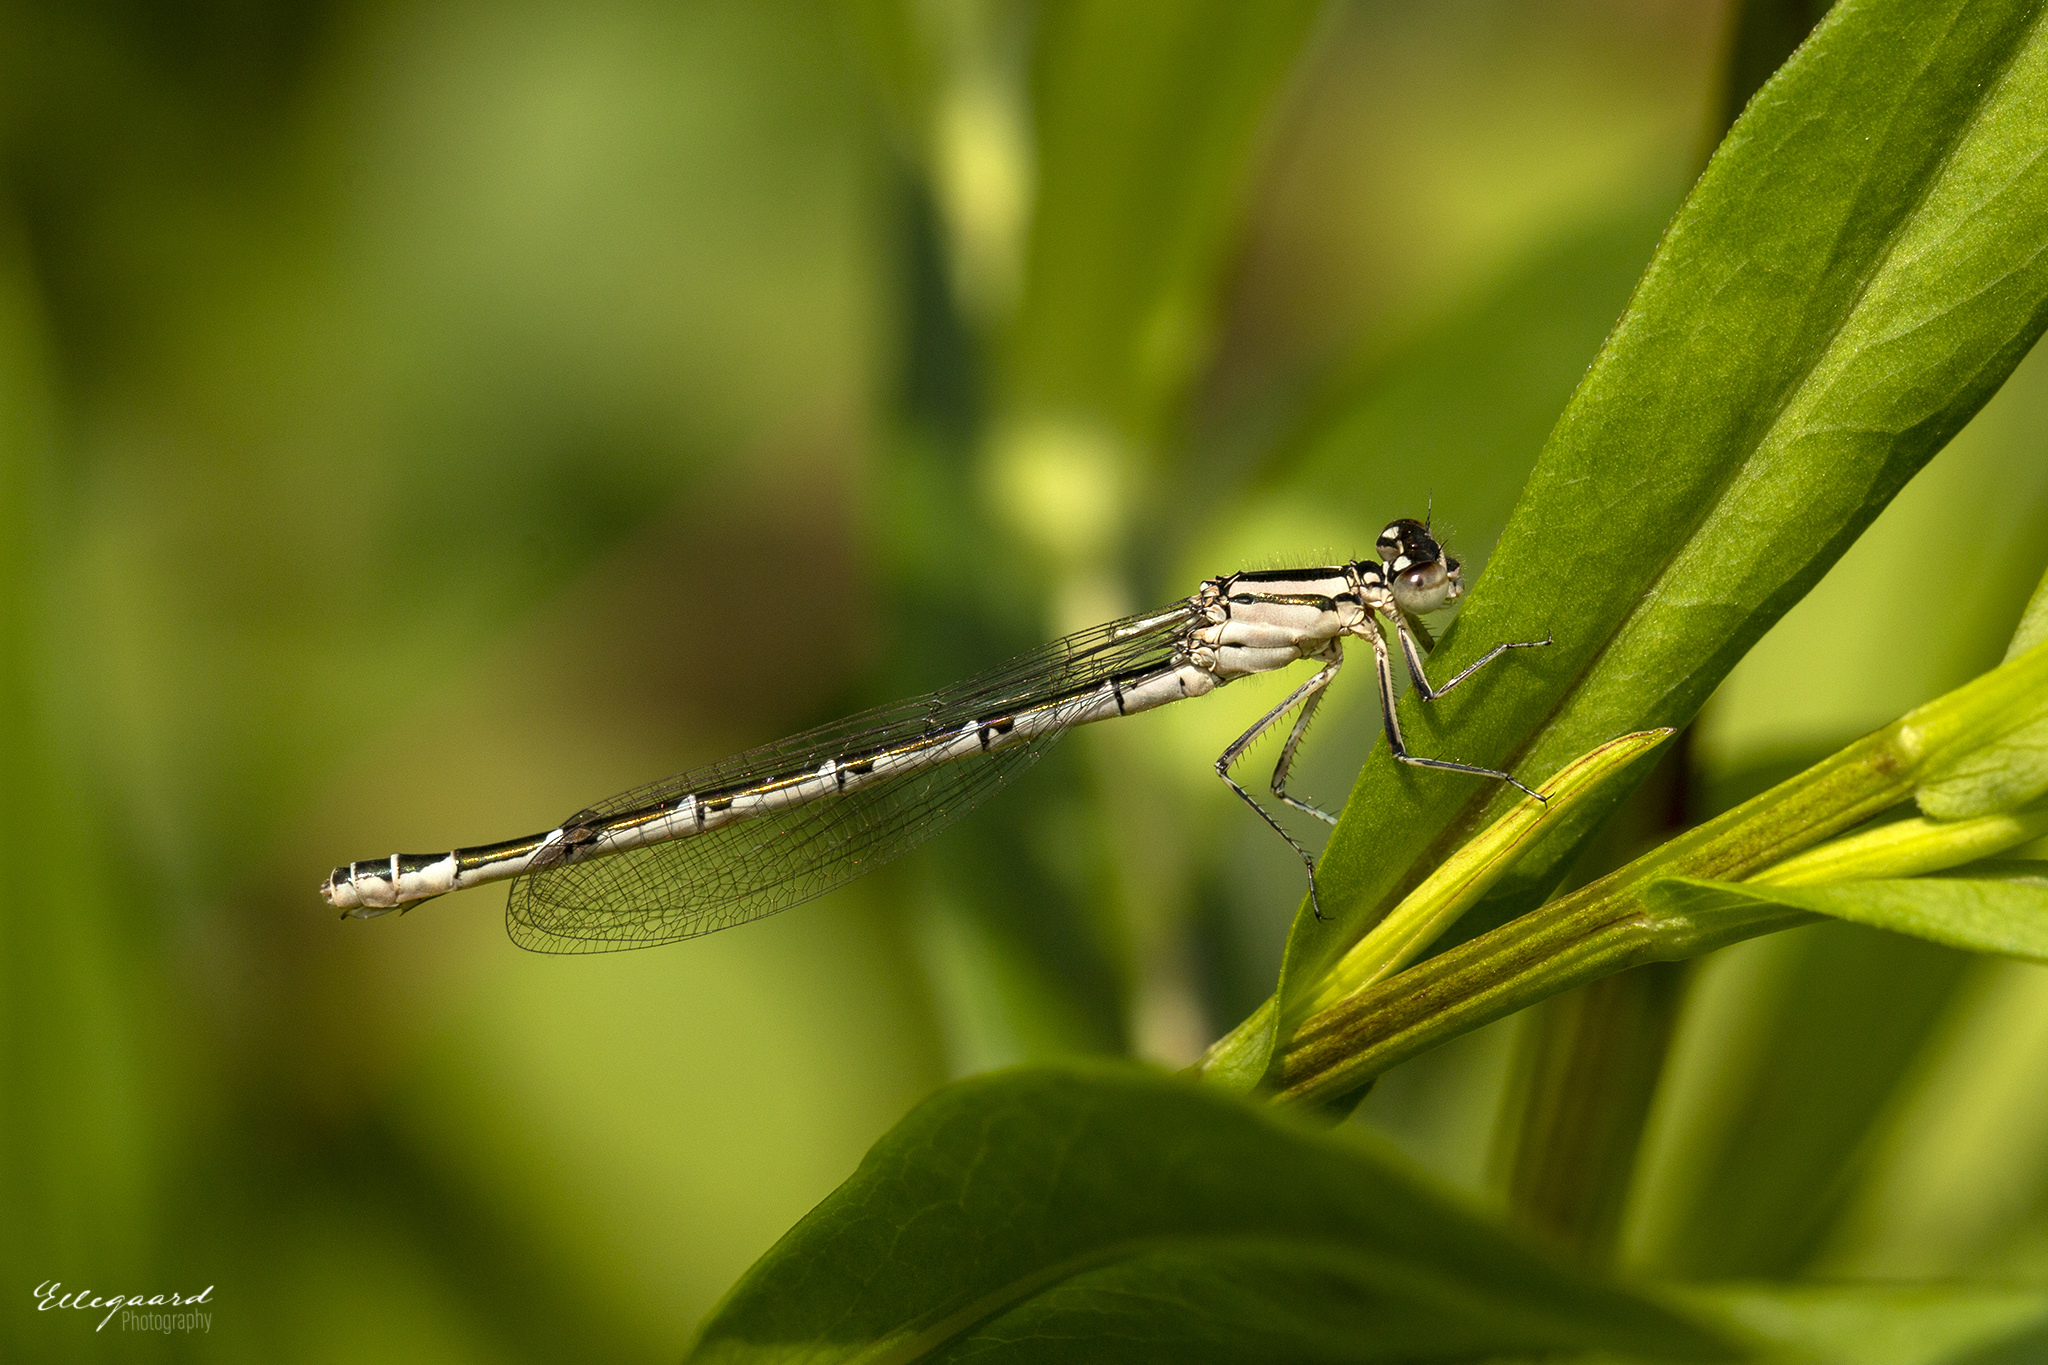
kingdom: Animalia
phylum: Arthropoda
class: Insecta
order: Odonata
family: Coenagrionidae
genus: Enallagma
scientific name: Enallagma cyathigerum
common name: Common blue damselfly
